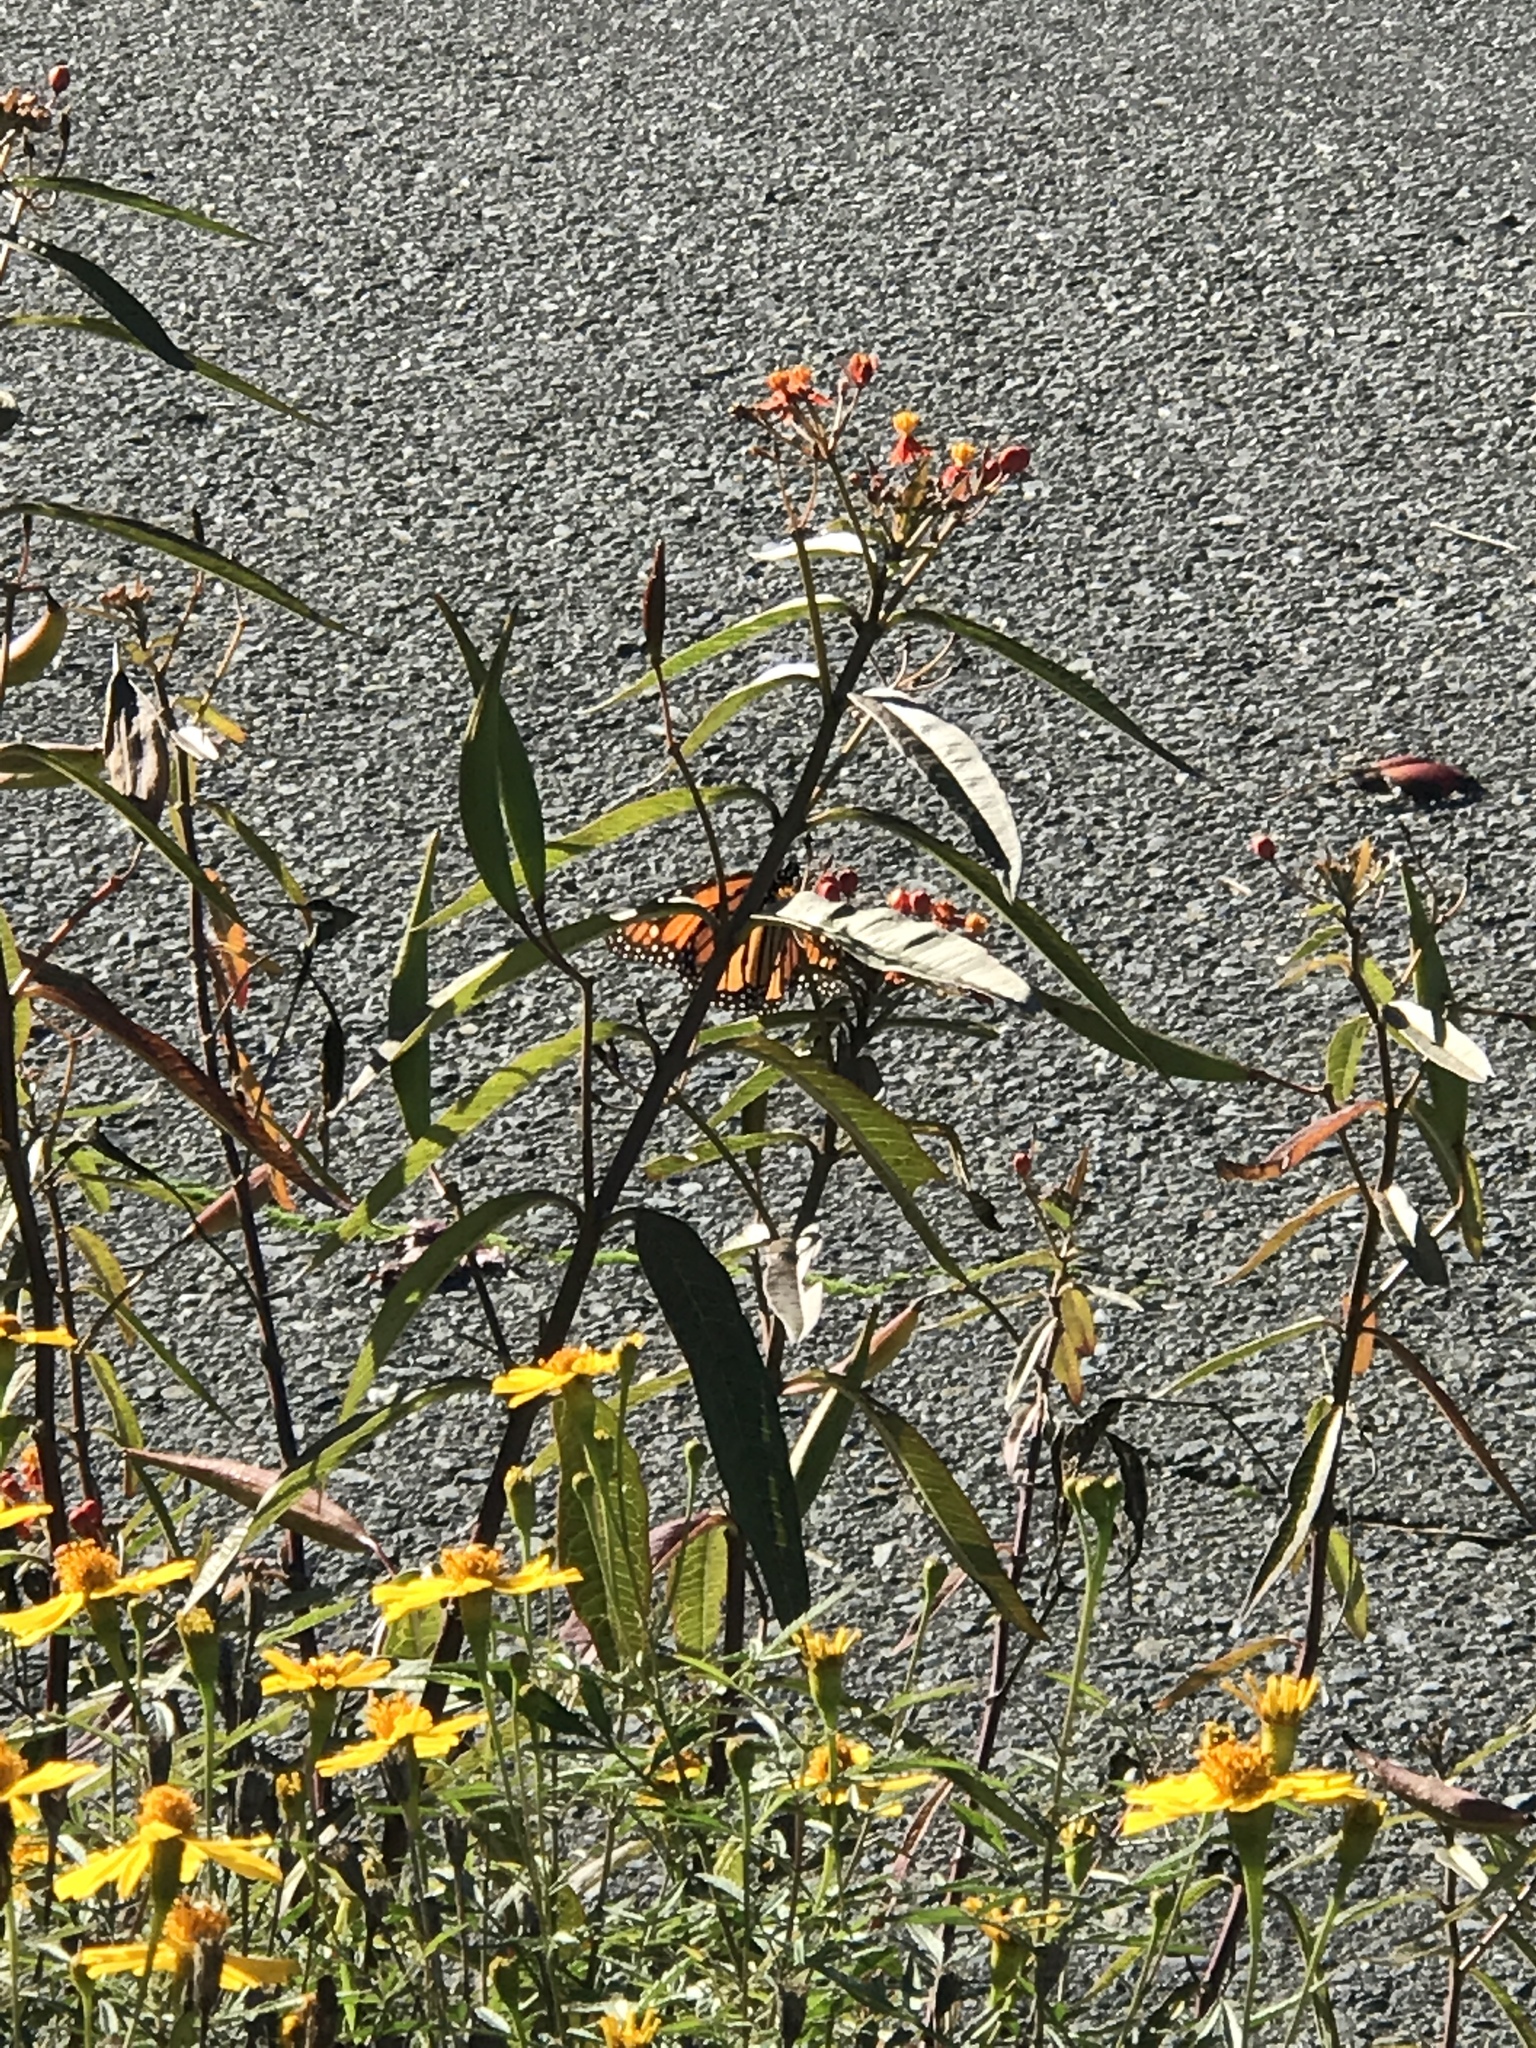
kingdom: Animalia
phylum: Arthropoda
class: Insecta
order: Lepidoptera
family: Nymphalidae
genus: Danaus
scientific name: Danaus plexippus
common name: Monarch
